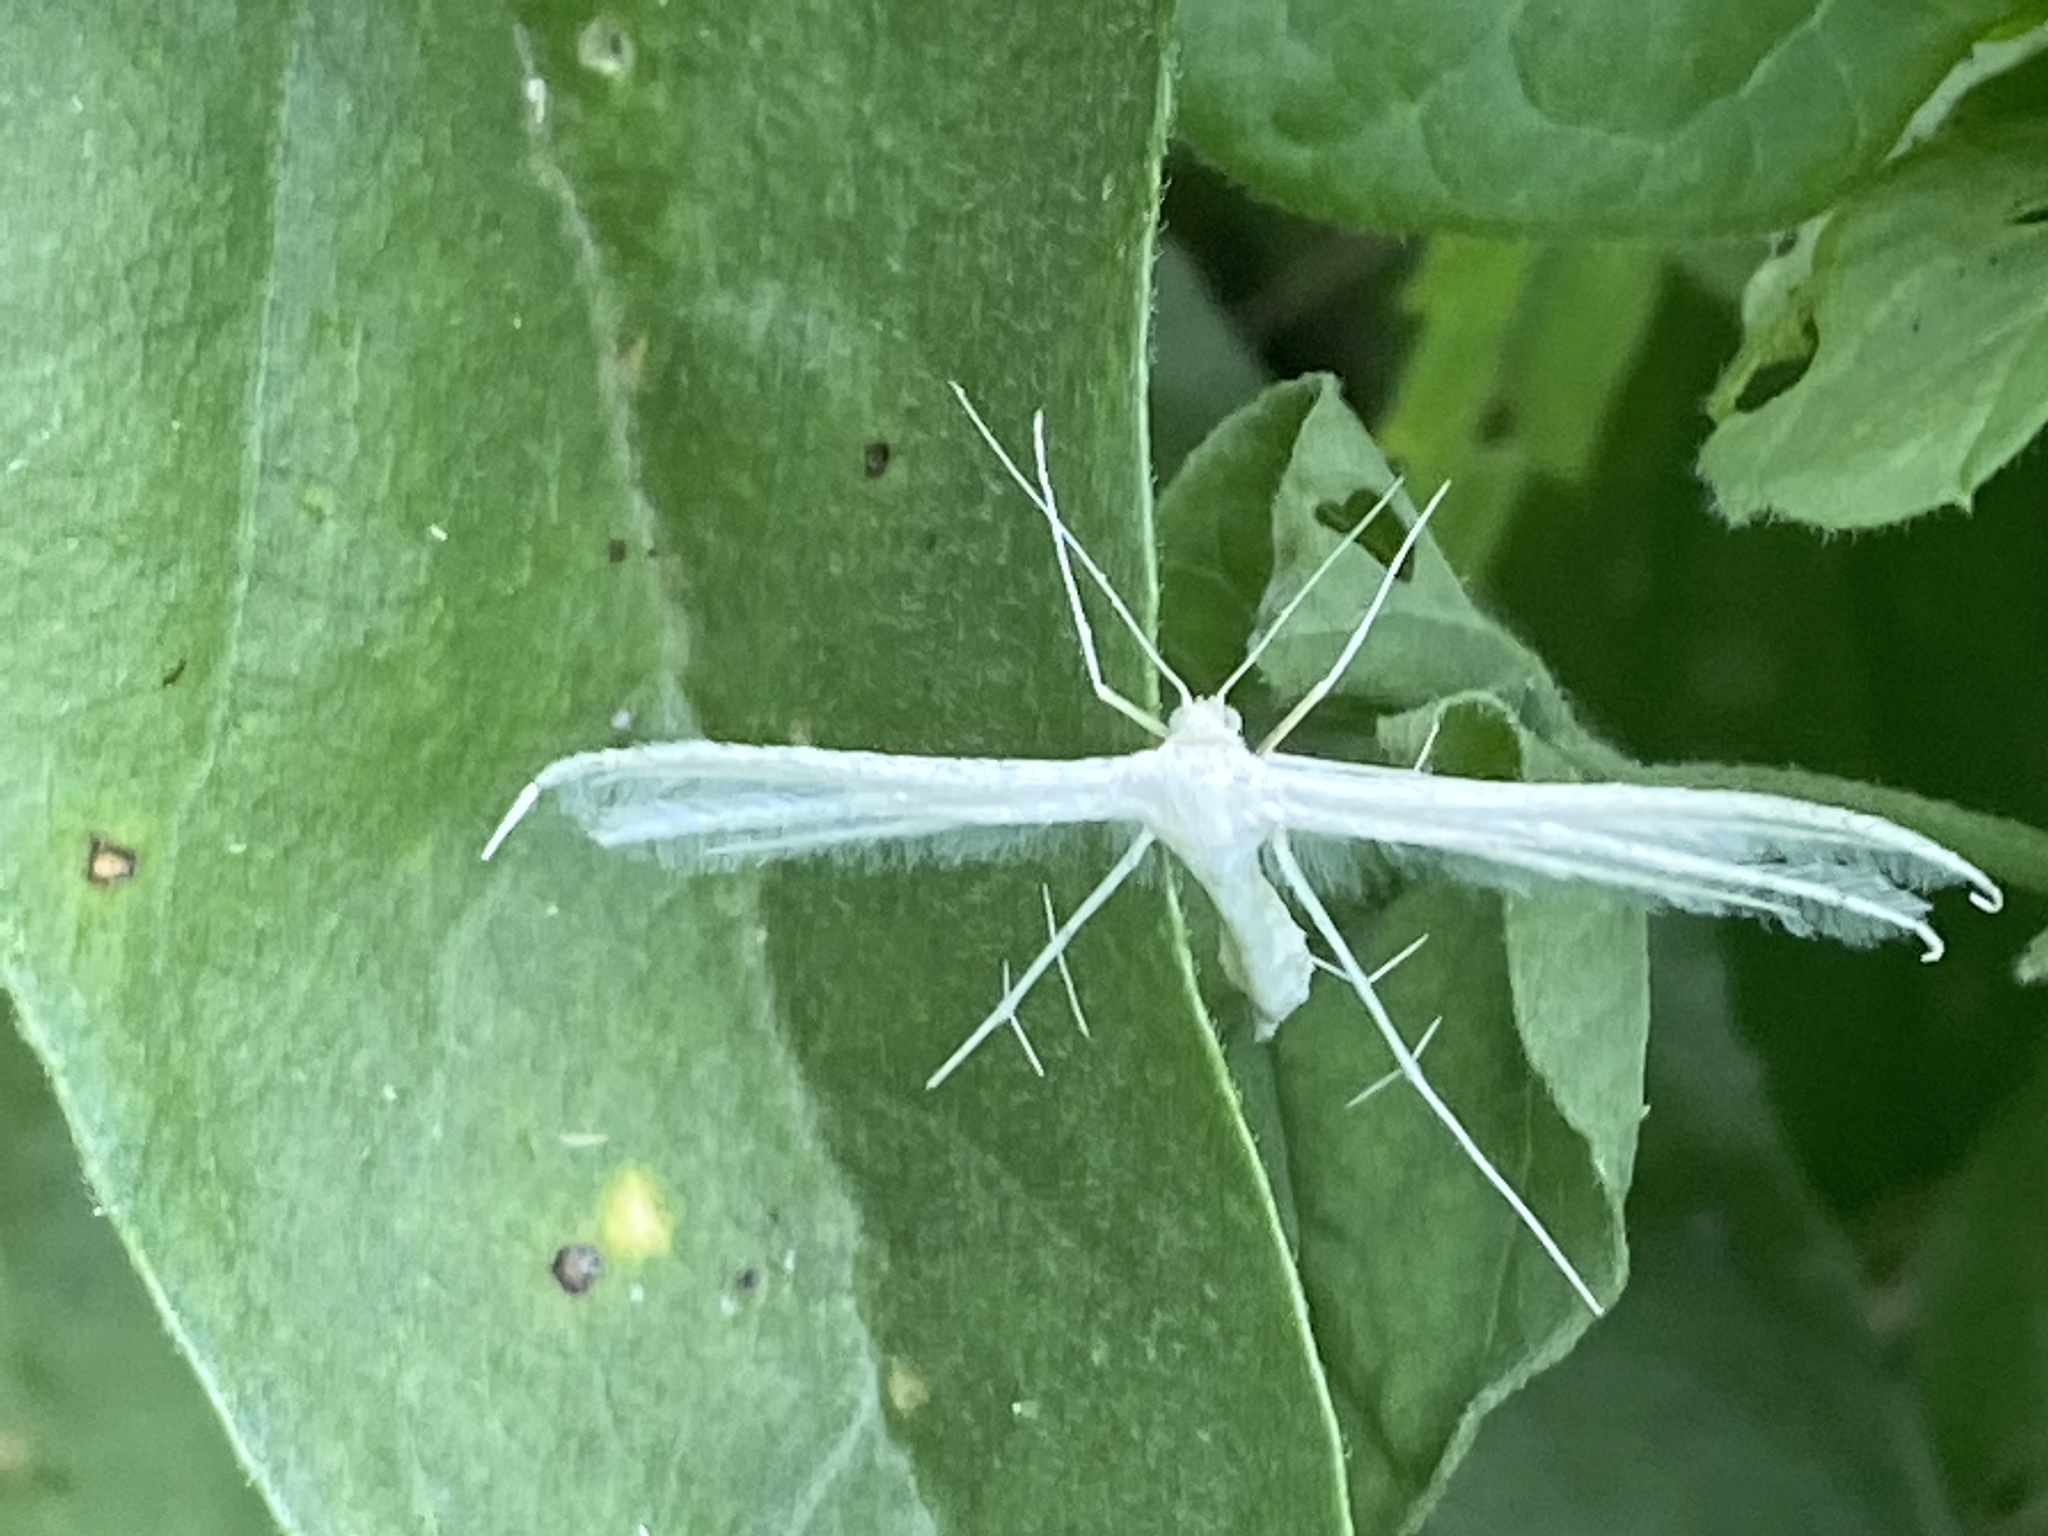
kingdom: Animalia
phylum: Arthropoda
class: Insecta
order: Lepidoptera
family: Pterophoridae
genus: Pterophorus
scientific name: Pterophorus pentadactyla
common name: White plume moth
